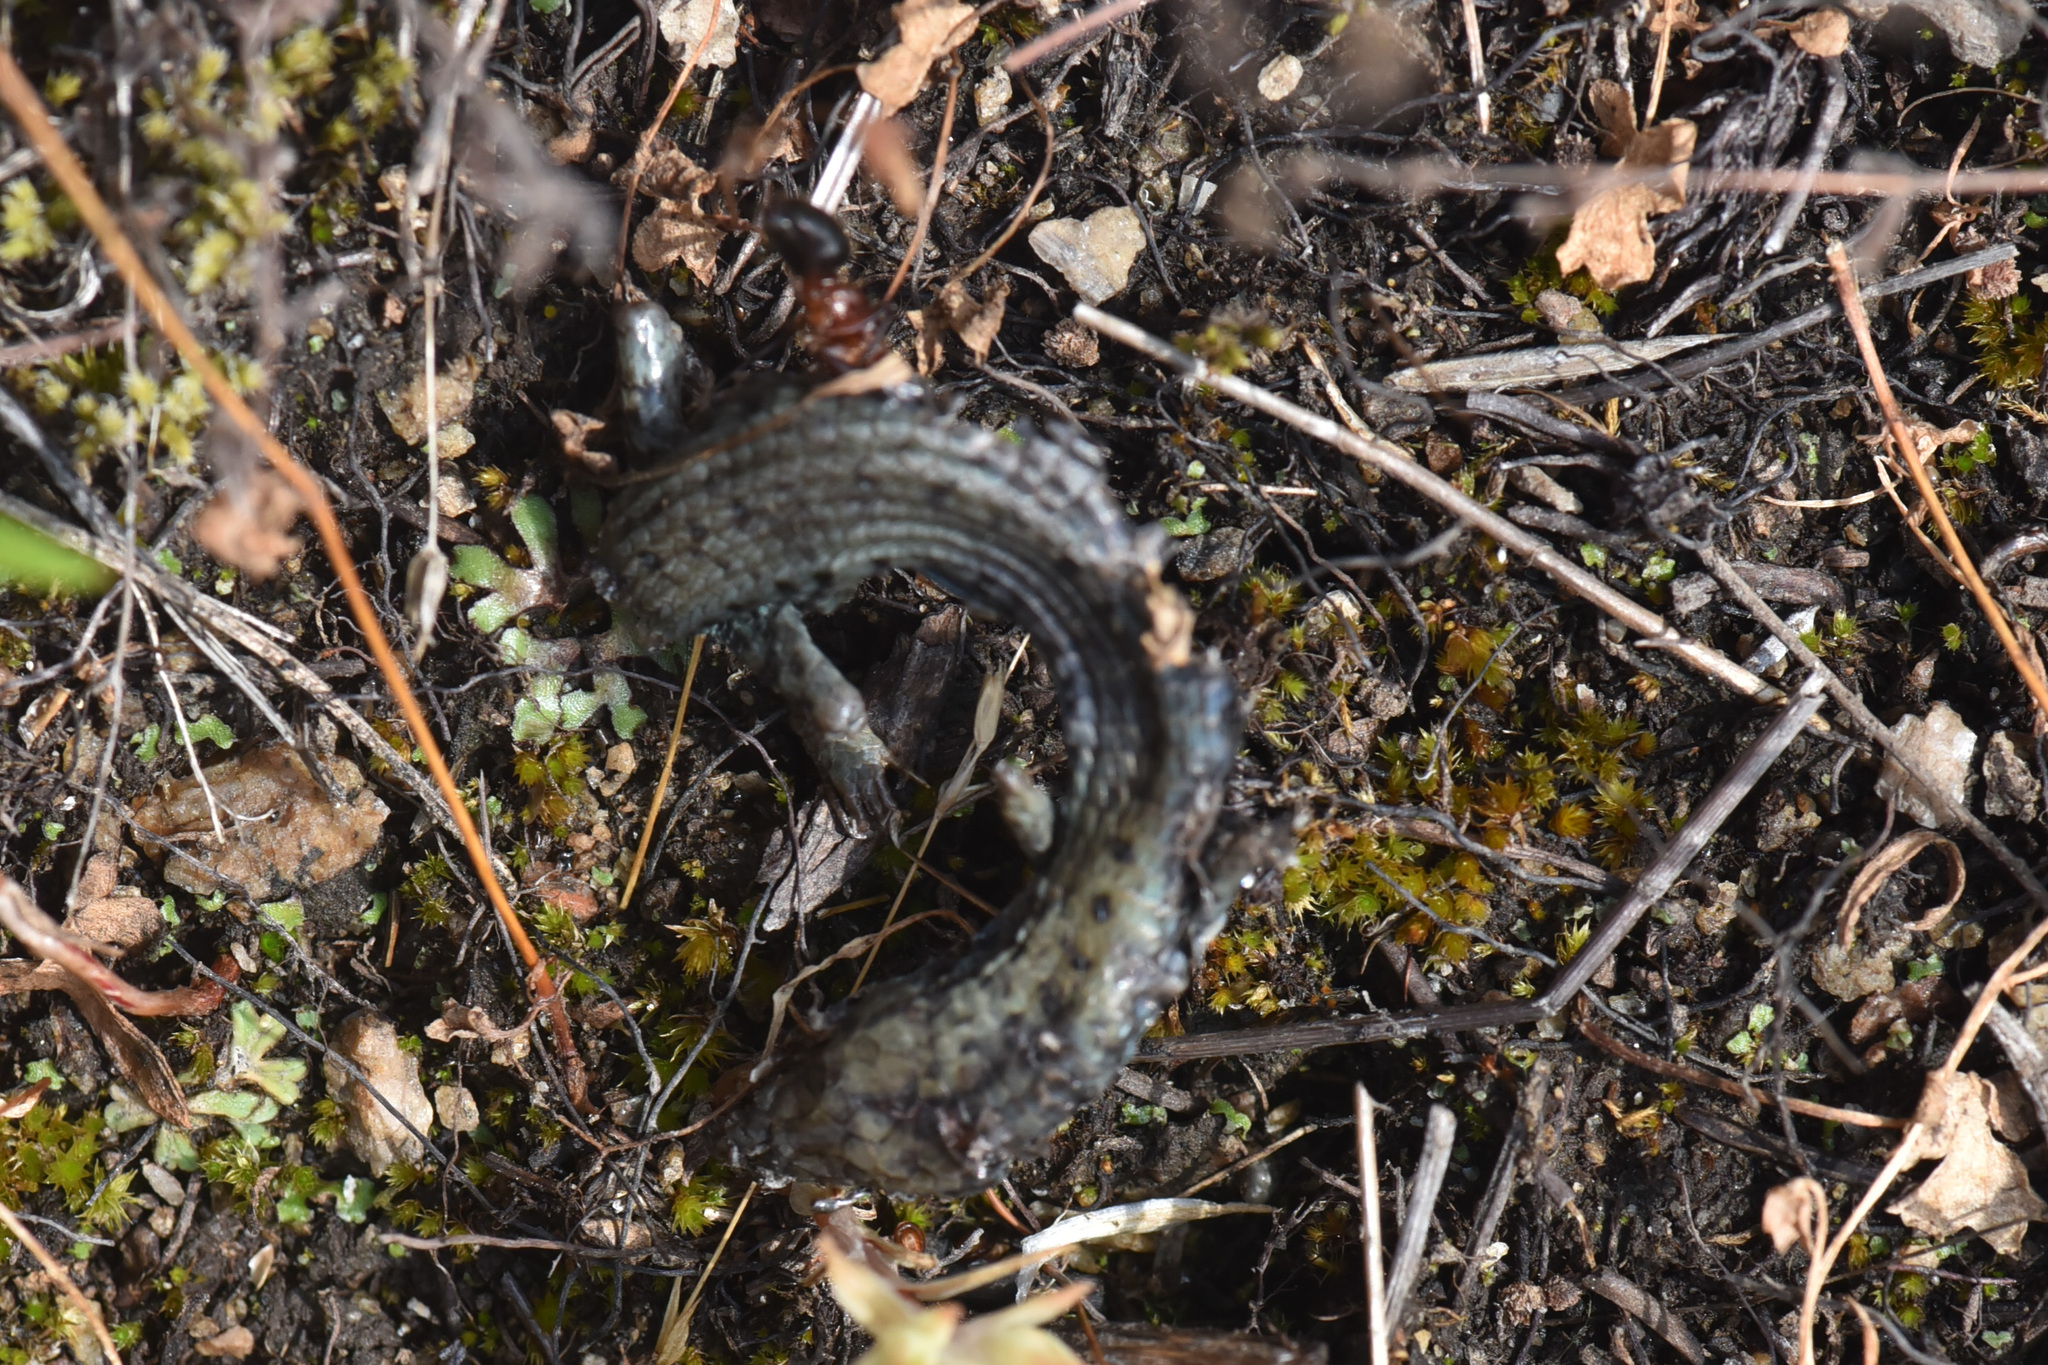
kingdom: Animalia
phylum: Chordata
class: Squamata
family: Anguidae
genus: Elgaria
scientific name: Elgaria coerulea
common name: Northern alligator lizard
